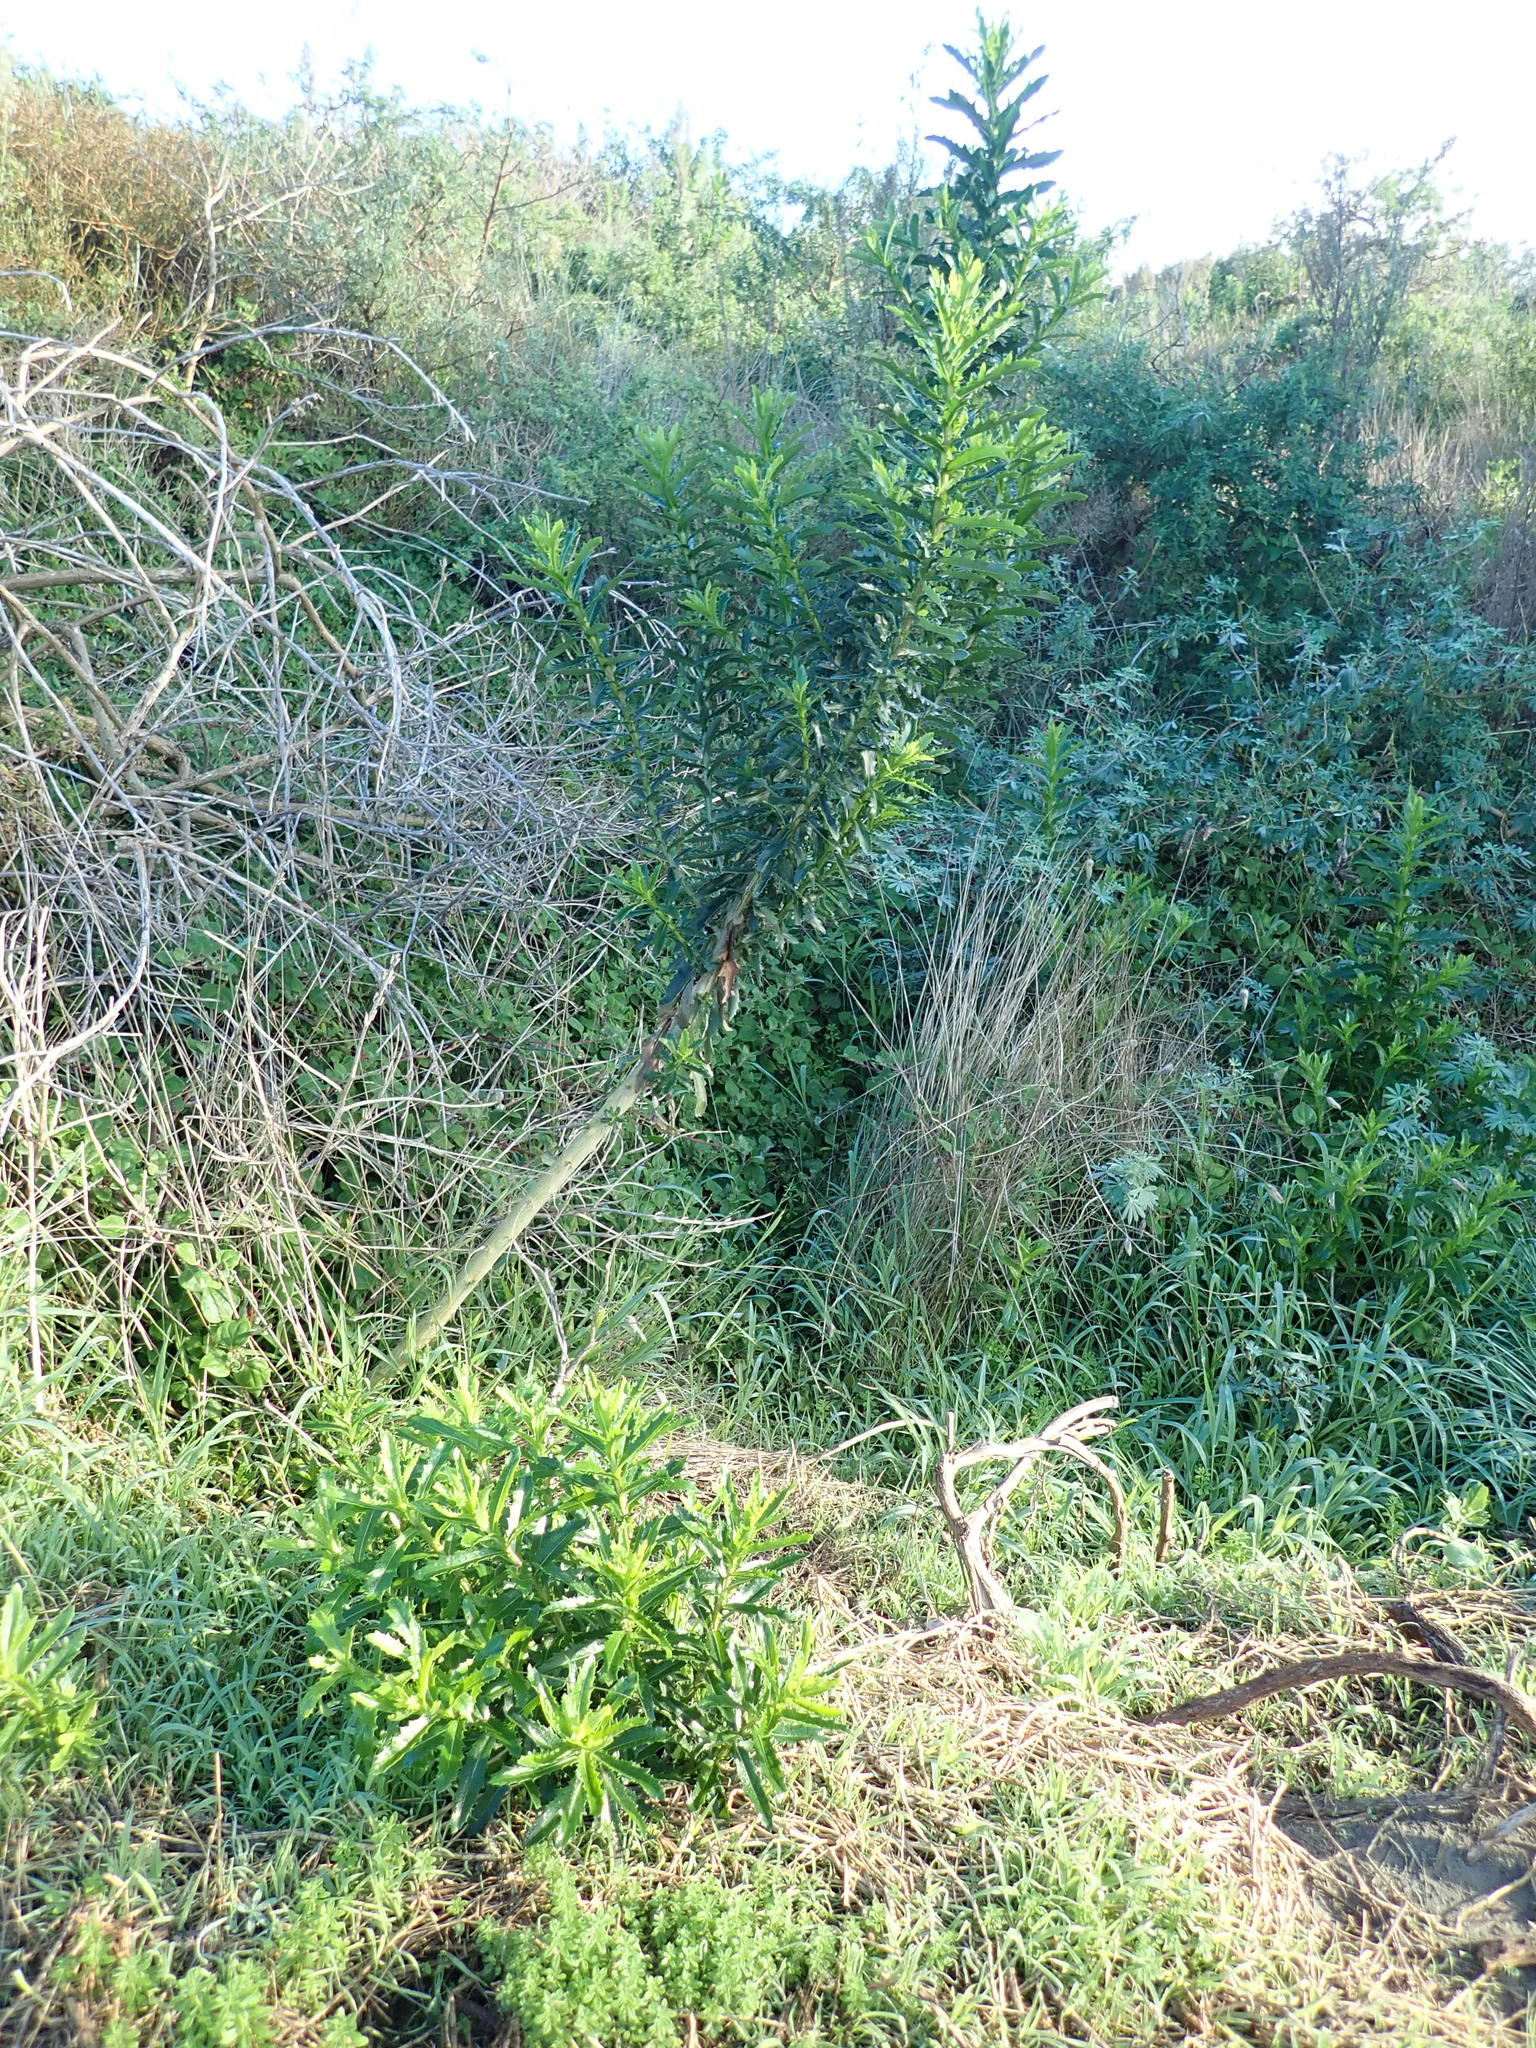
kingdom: Plantae
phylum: Tracheophyta
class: Magnoliopsida
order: Asterales
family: Asteraceae
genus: Senecio
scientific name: Senecio glastifolius
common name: Woad-leaved ragwort
